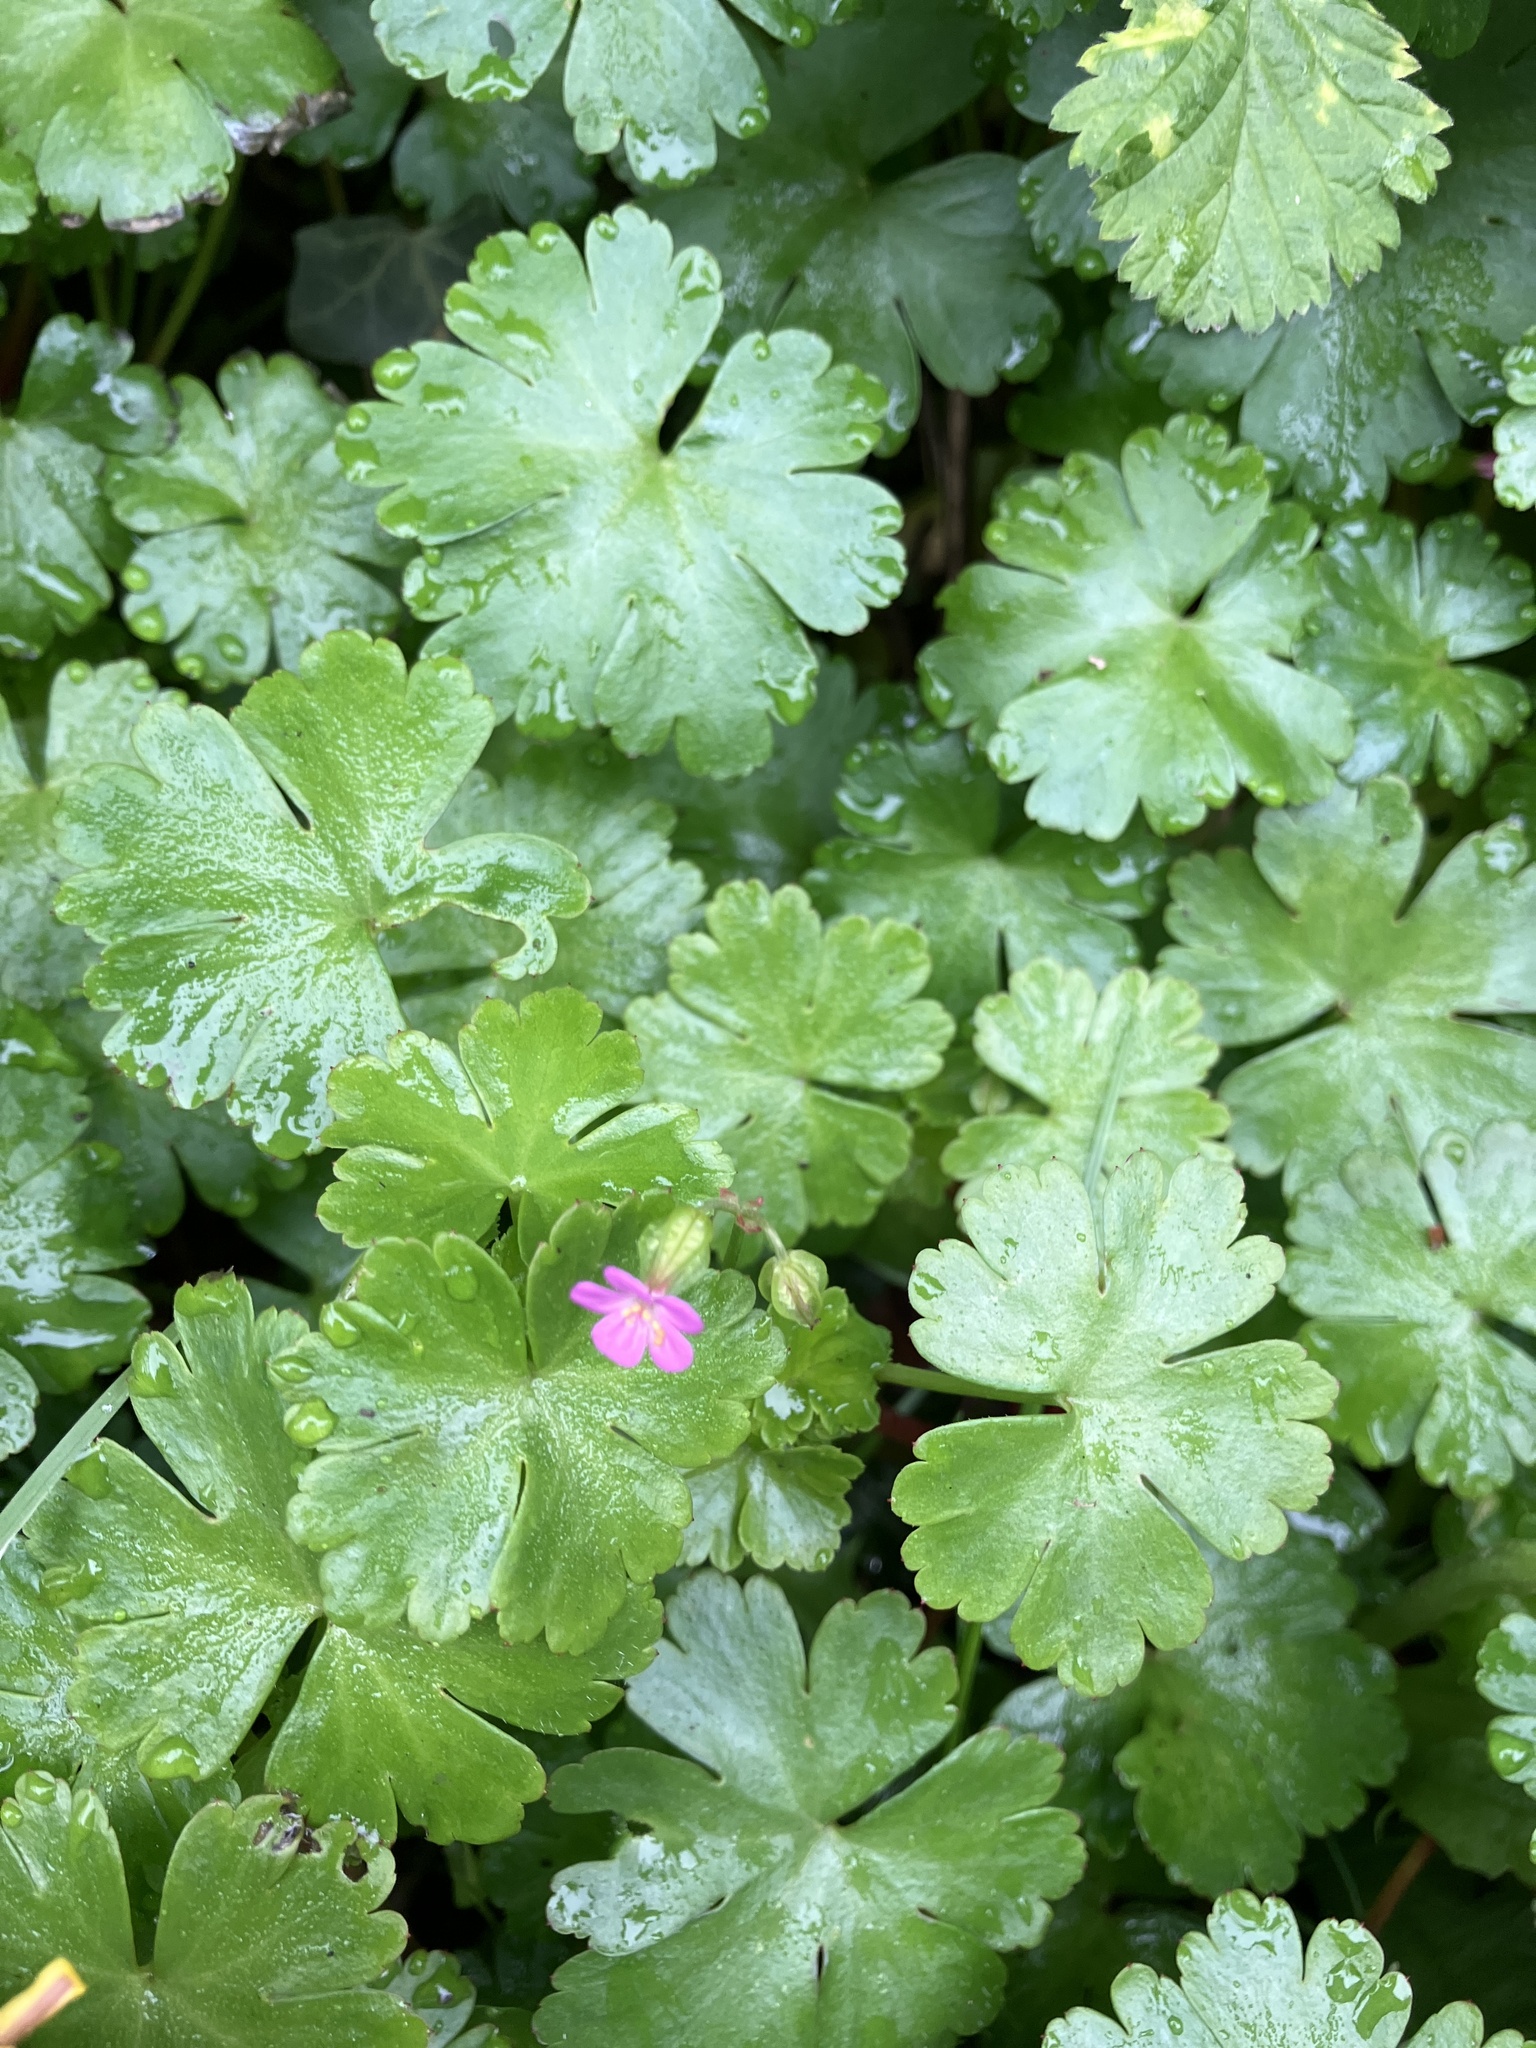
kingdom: Plantae
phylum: Tracheophyta
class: Magnoliopsida
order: Geraniales
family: Geraniaceae
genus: Geranium
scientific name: Geranium lucidum
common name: Shining crane's-bill
